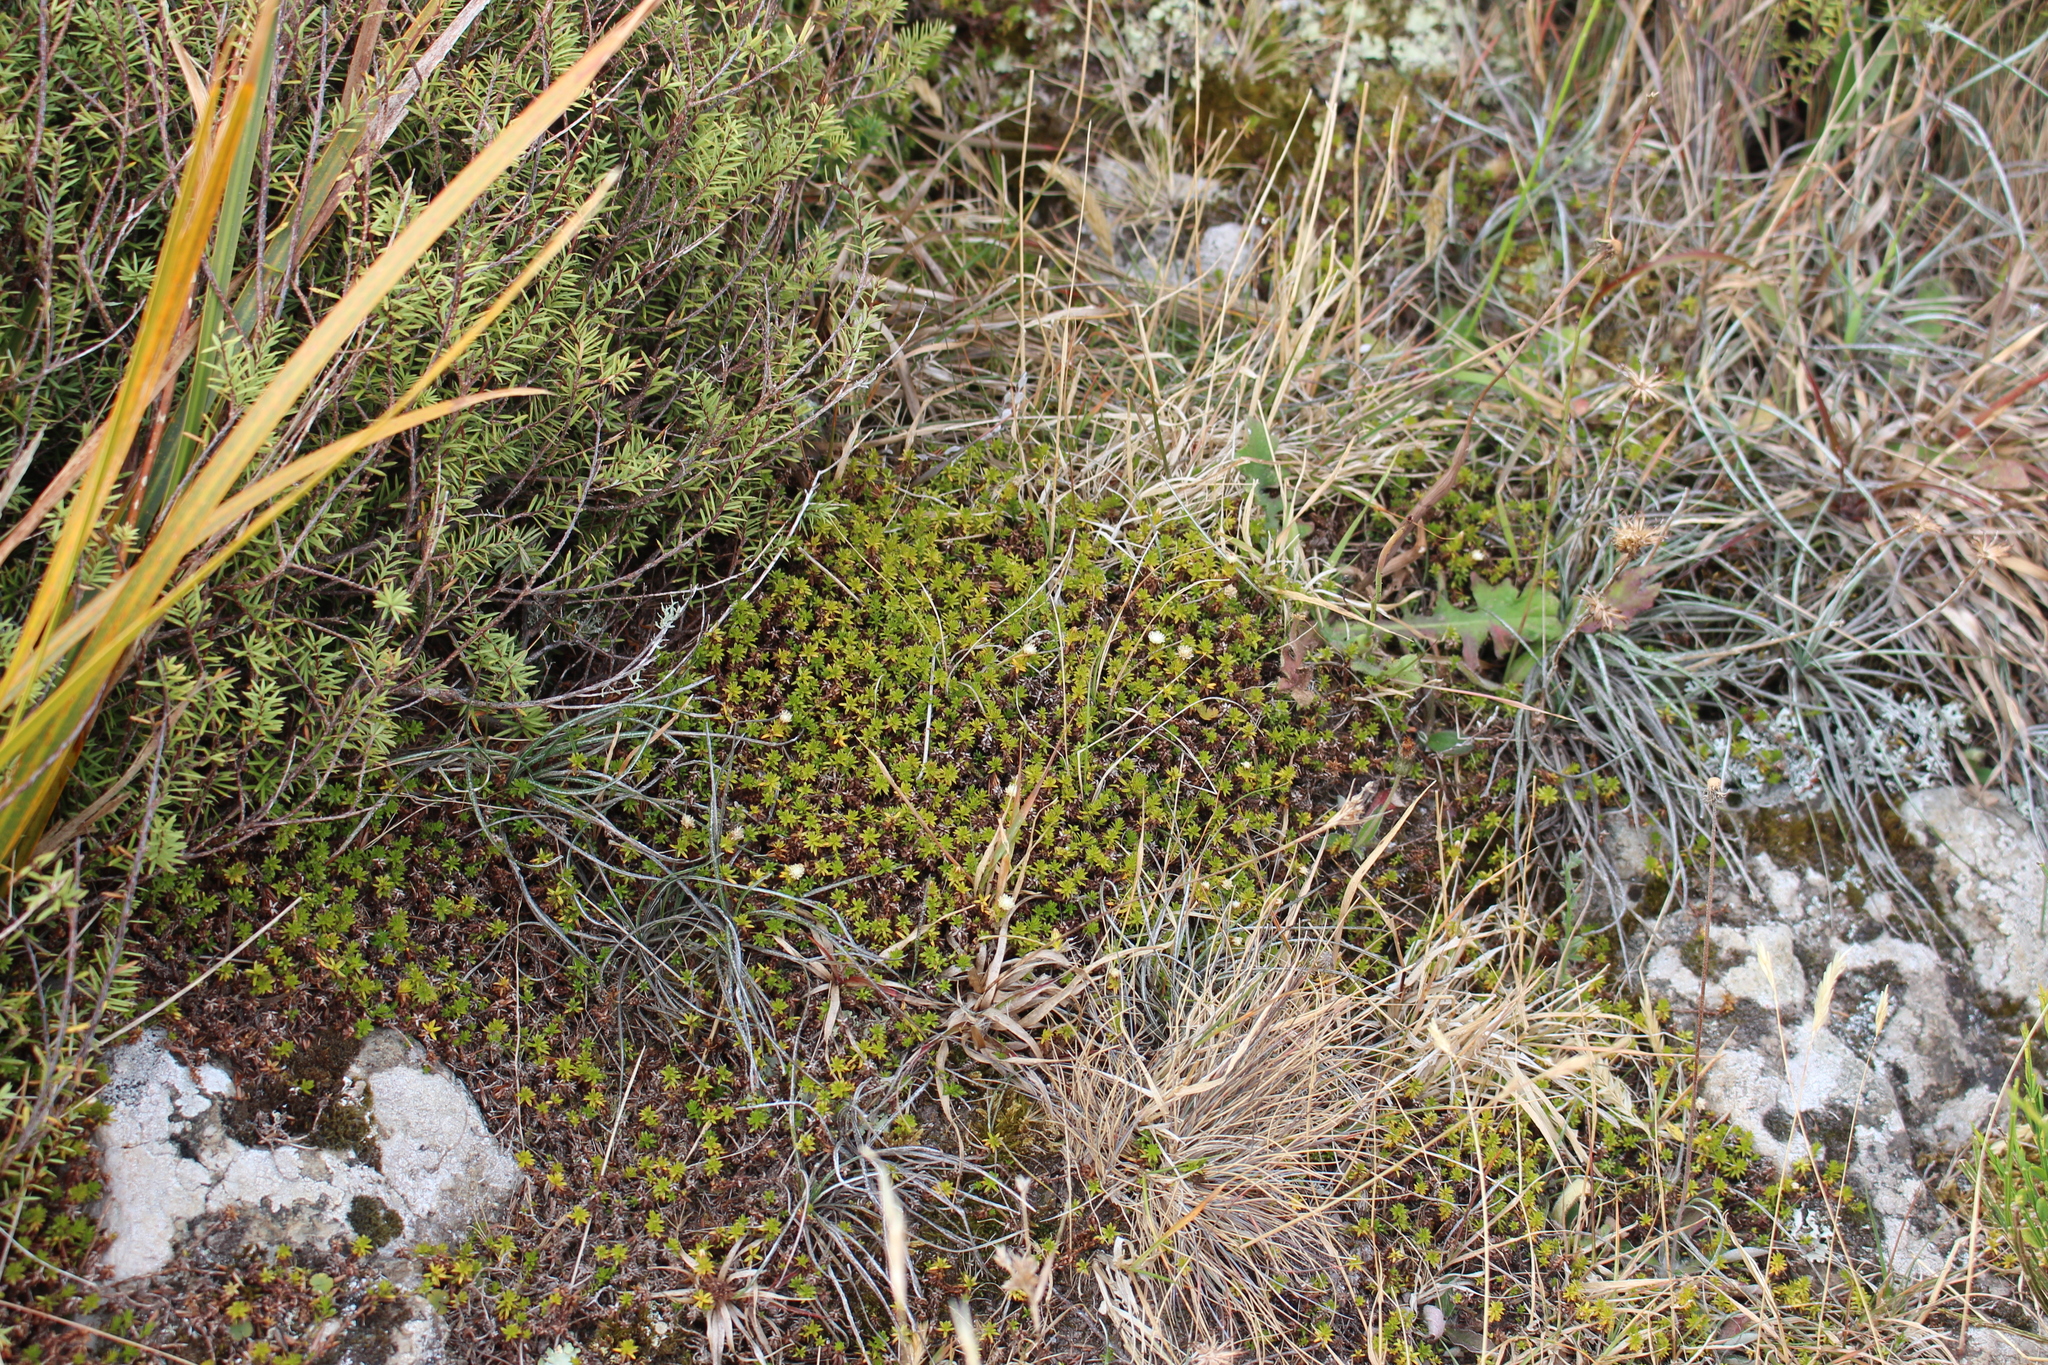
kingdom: Plantae
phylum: Tracheophyta
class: Magnoliopsida
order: Asterales
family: Asteraceae
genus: Raoulia
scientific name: Raoulia glabra
